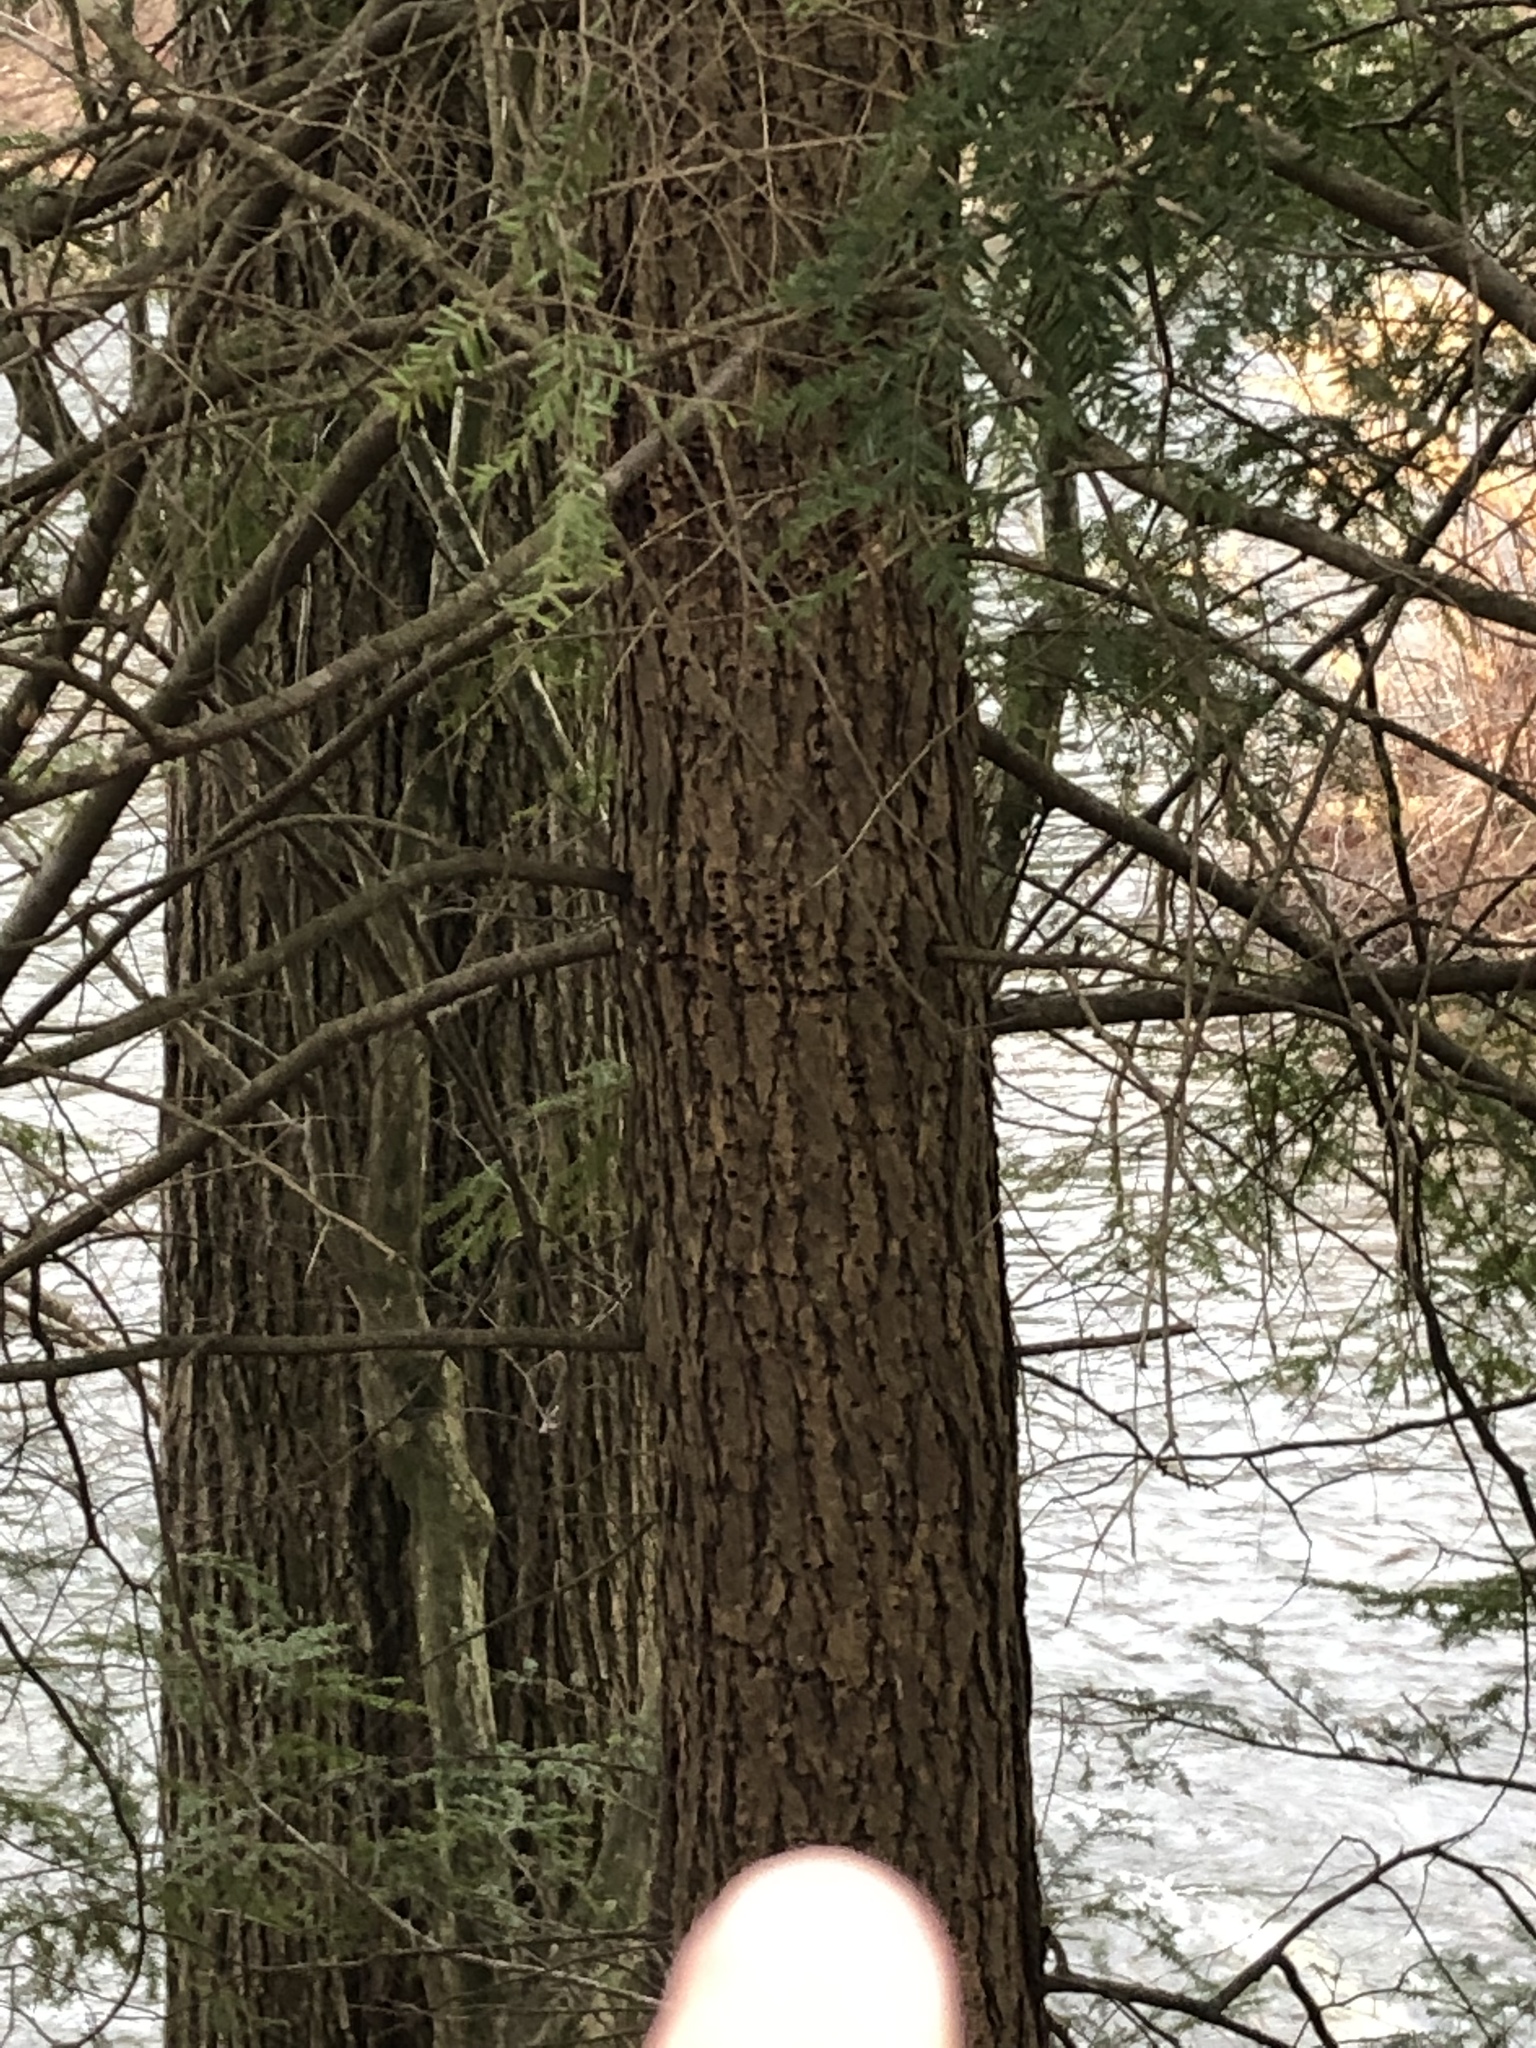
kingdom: Plantae
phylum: Tracheophyta
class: Pinopsida
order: Pinales
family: Pinaceae
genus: Tsuga
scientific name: Tsuga canadensis
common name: Eastern hemlock
